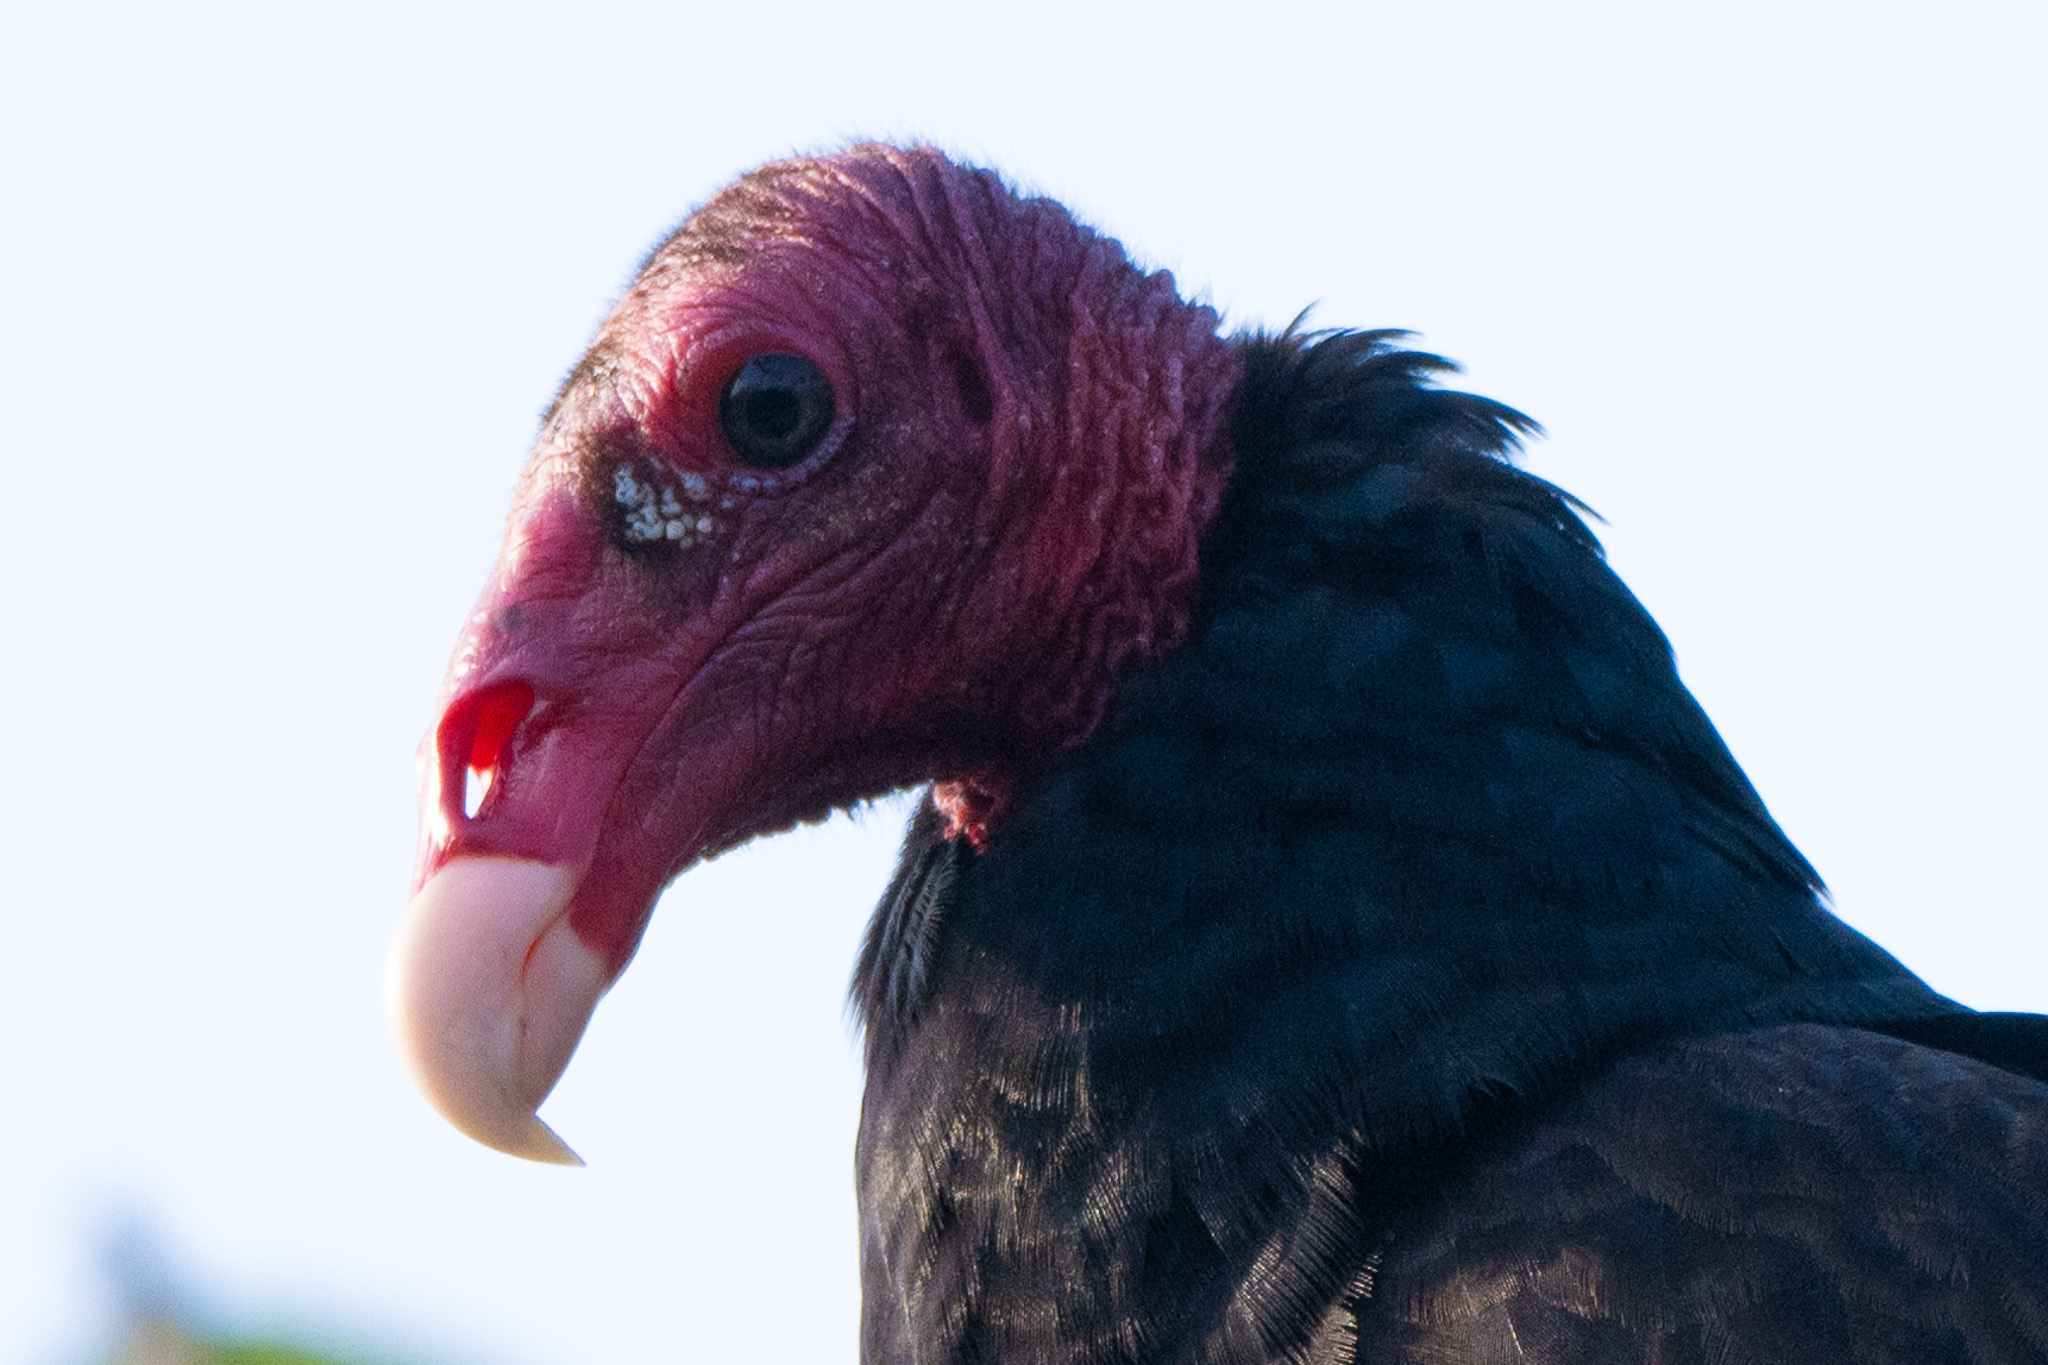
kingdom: Animalia
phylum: Chordata
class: Aves
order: Accipitriformes
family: Cathartidae
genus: Cathartes
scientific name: Cathartes aura
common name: Turkey vulture
